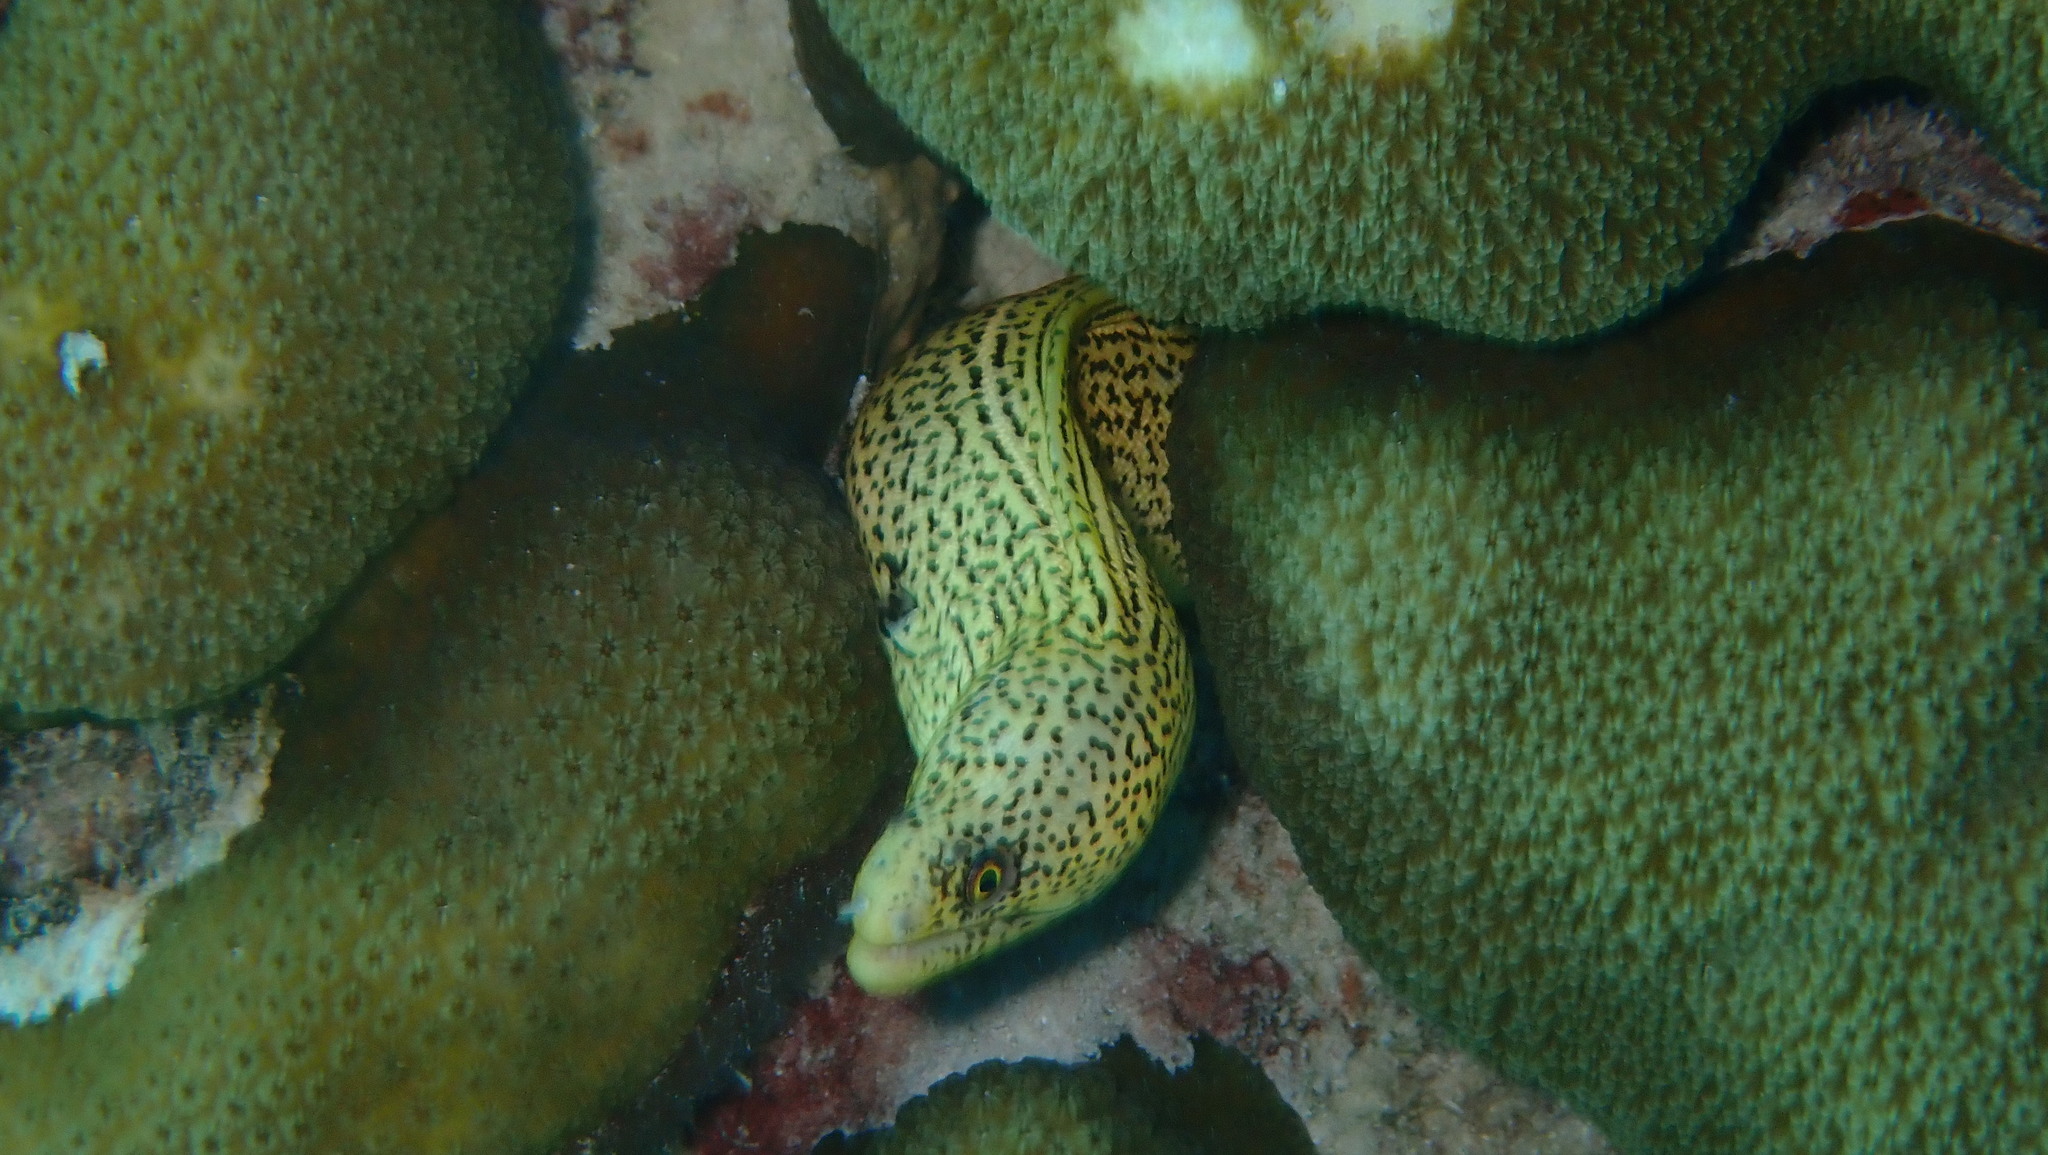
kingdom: Animalia
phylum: Chordata
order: Anguilliformes
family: Muraenidae
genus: Gymnothorax
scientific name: Gymnothorax miliaris
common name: Goldentail moray
